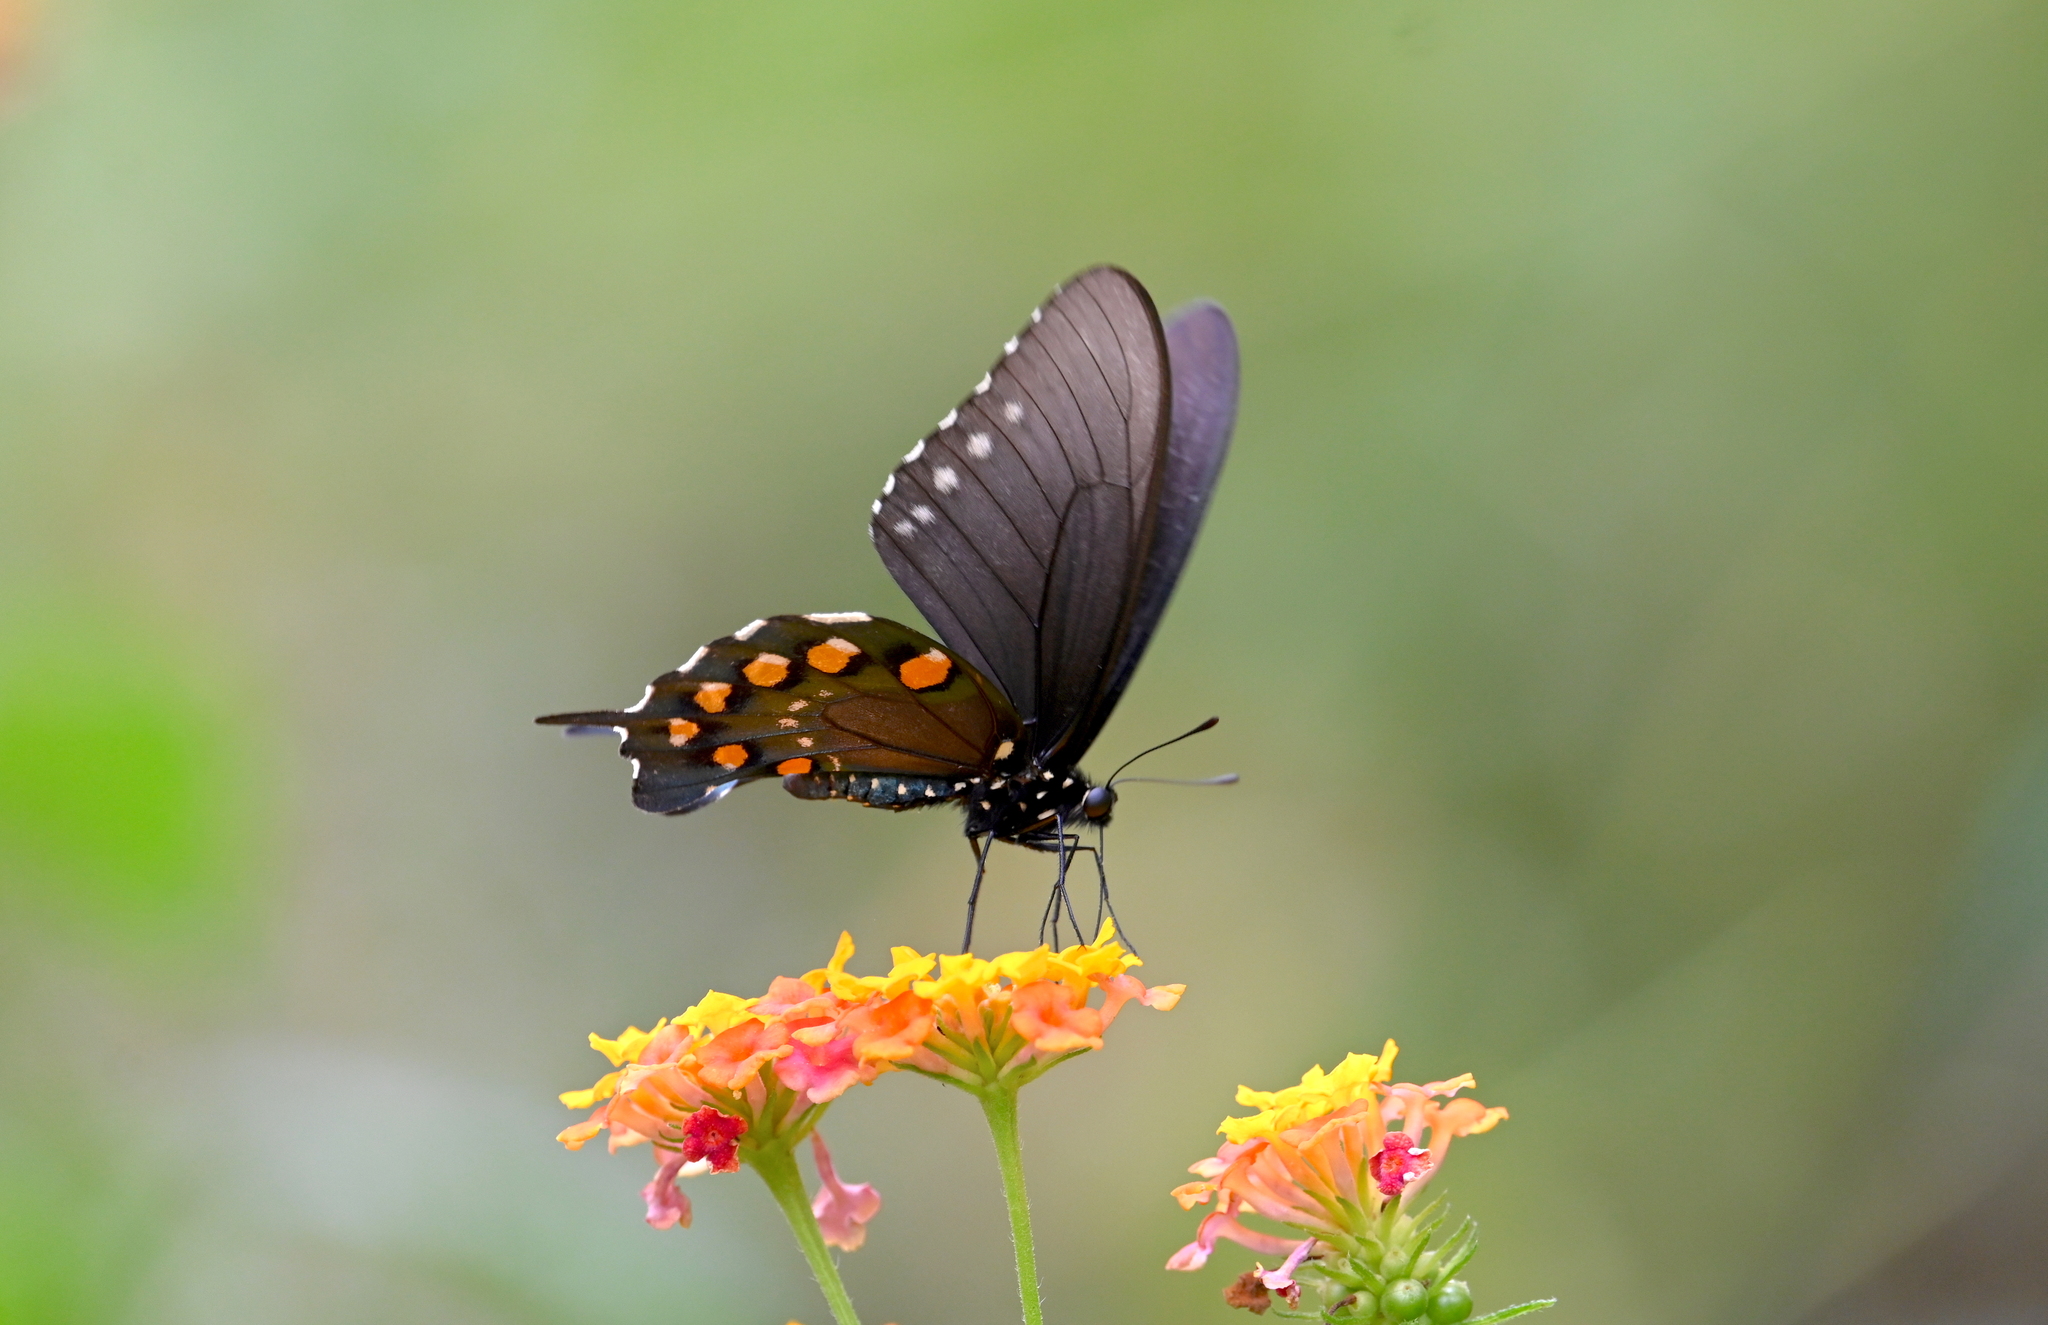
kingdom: Animalia
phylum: Arthropoda
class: Insecta
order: Lepidoptera
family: Papilionidae
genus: Battus
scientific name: Battus philenor
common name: Pipevine swallowtail
